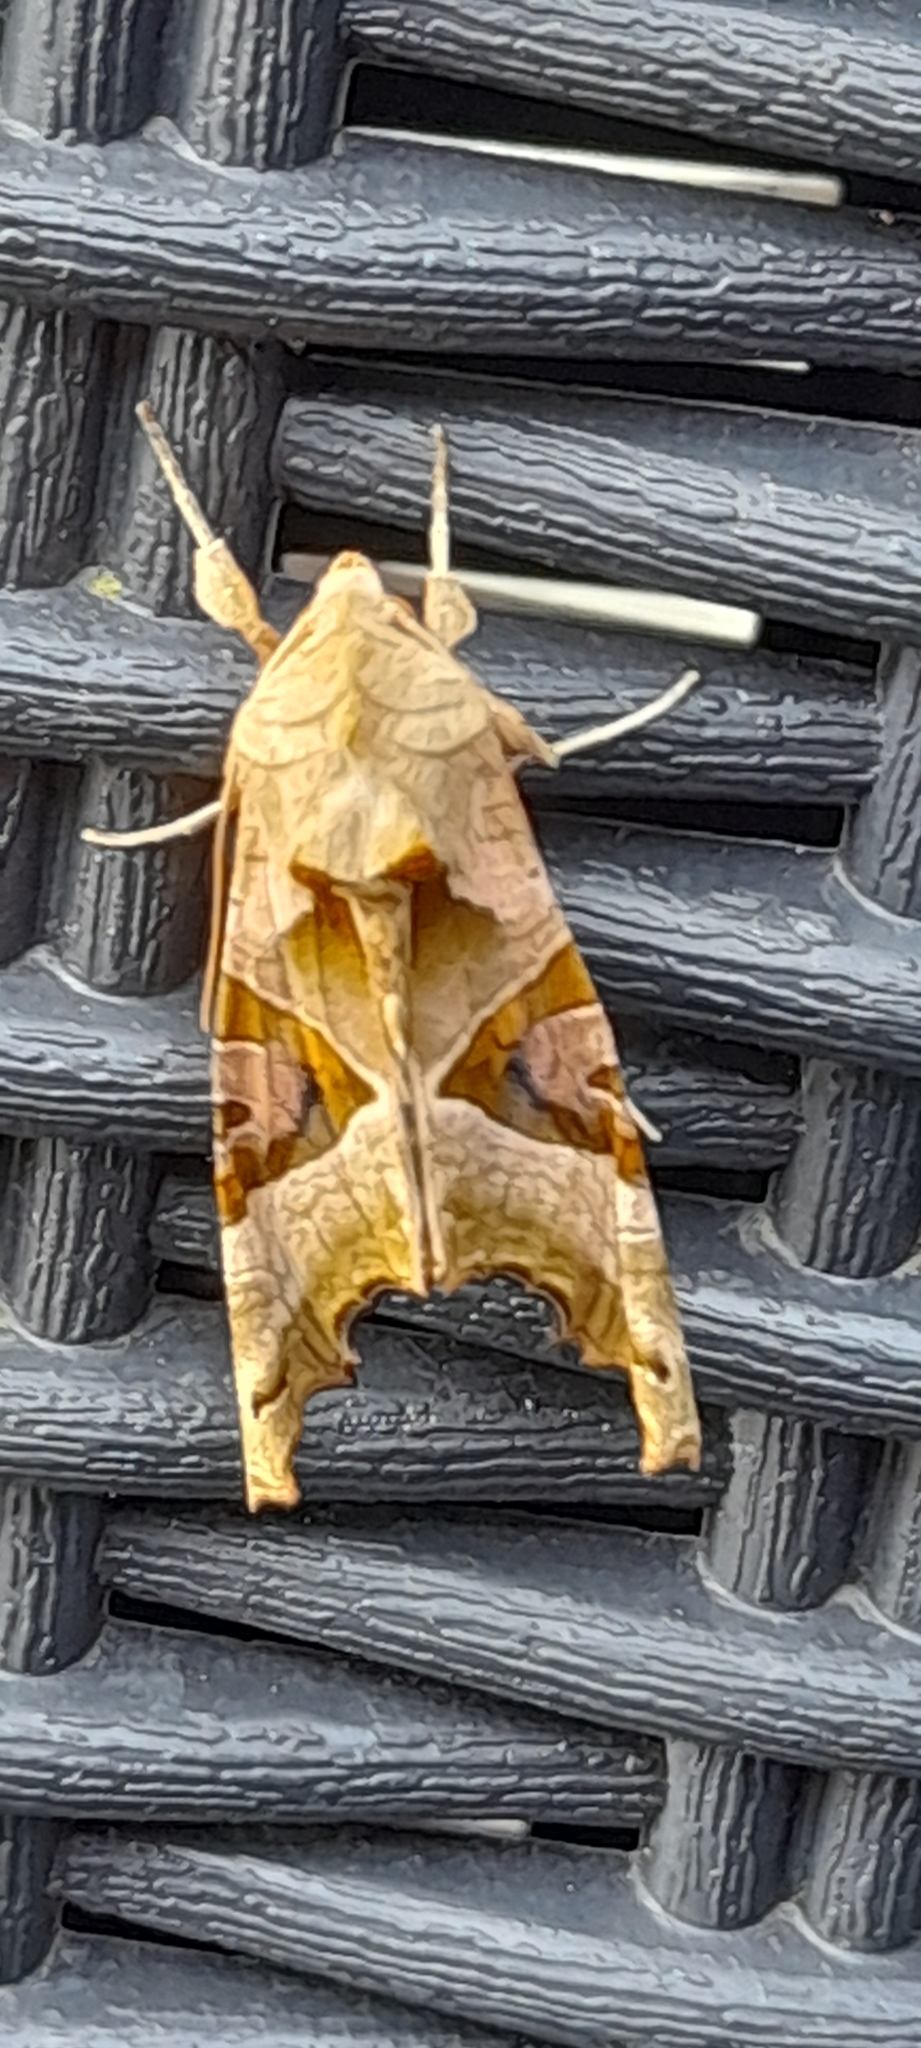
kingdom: Animalia
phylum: Arthropoda
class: Insecta
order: Lepidoptera
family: Noctuidae
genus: Phlogophora
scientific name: Phlogophora meticulosa
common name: Angle shades
